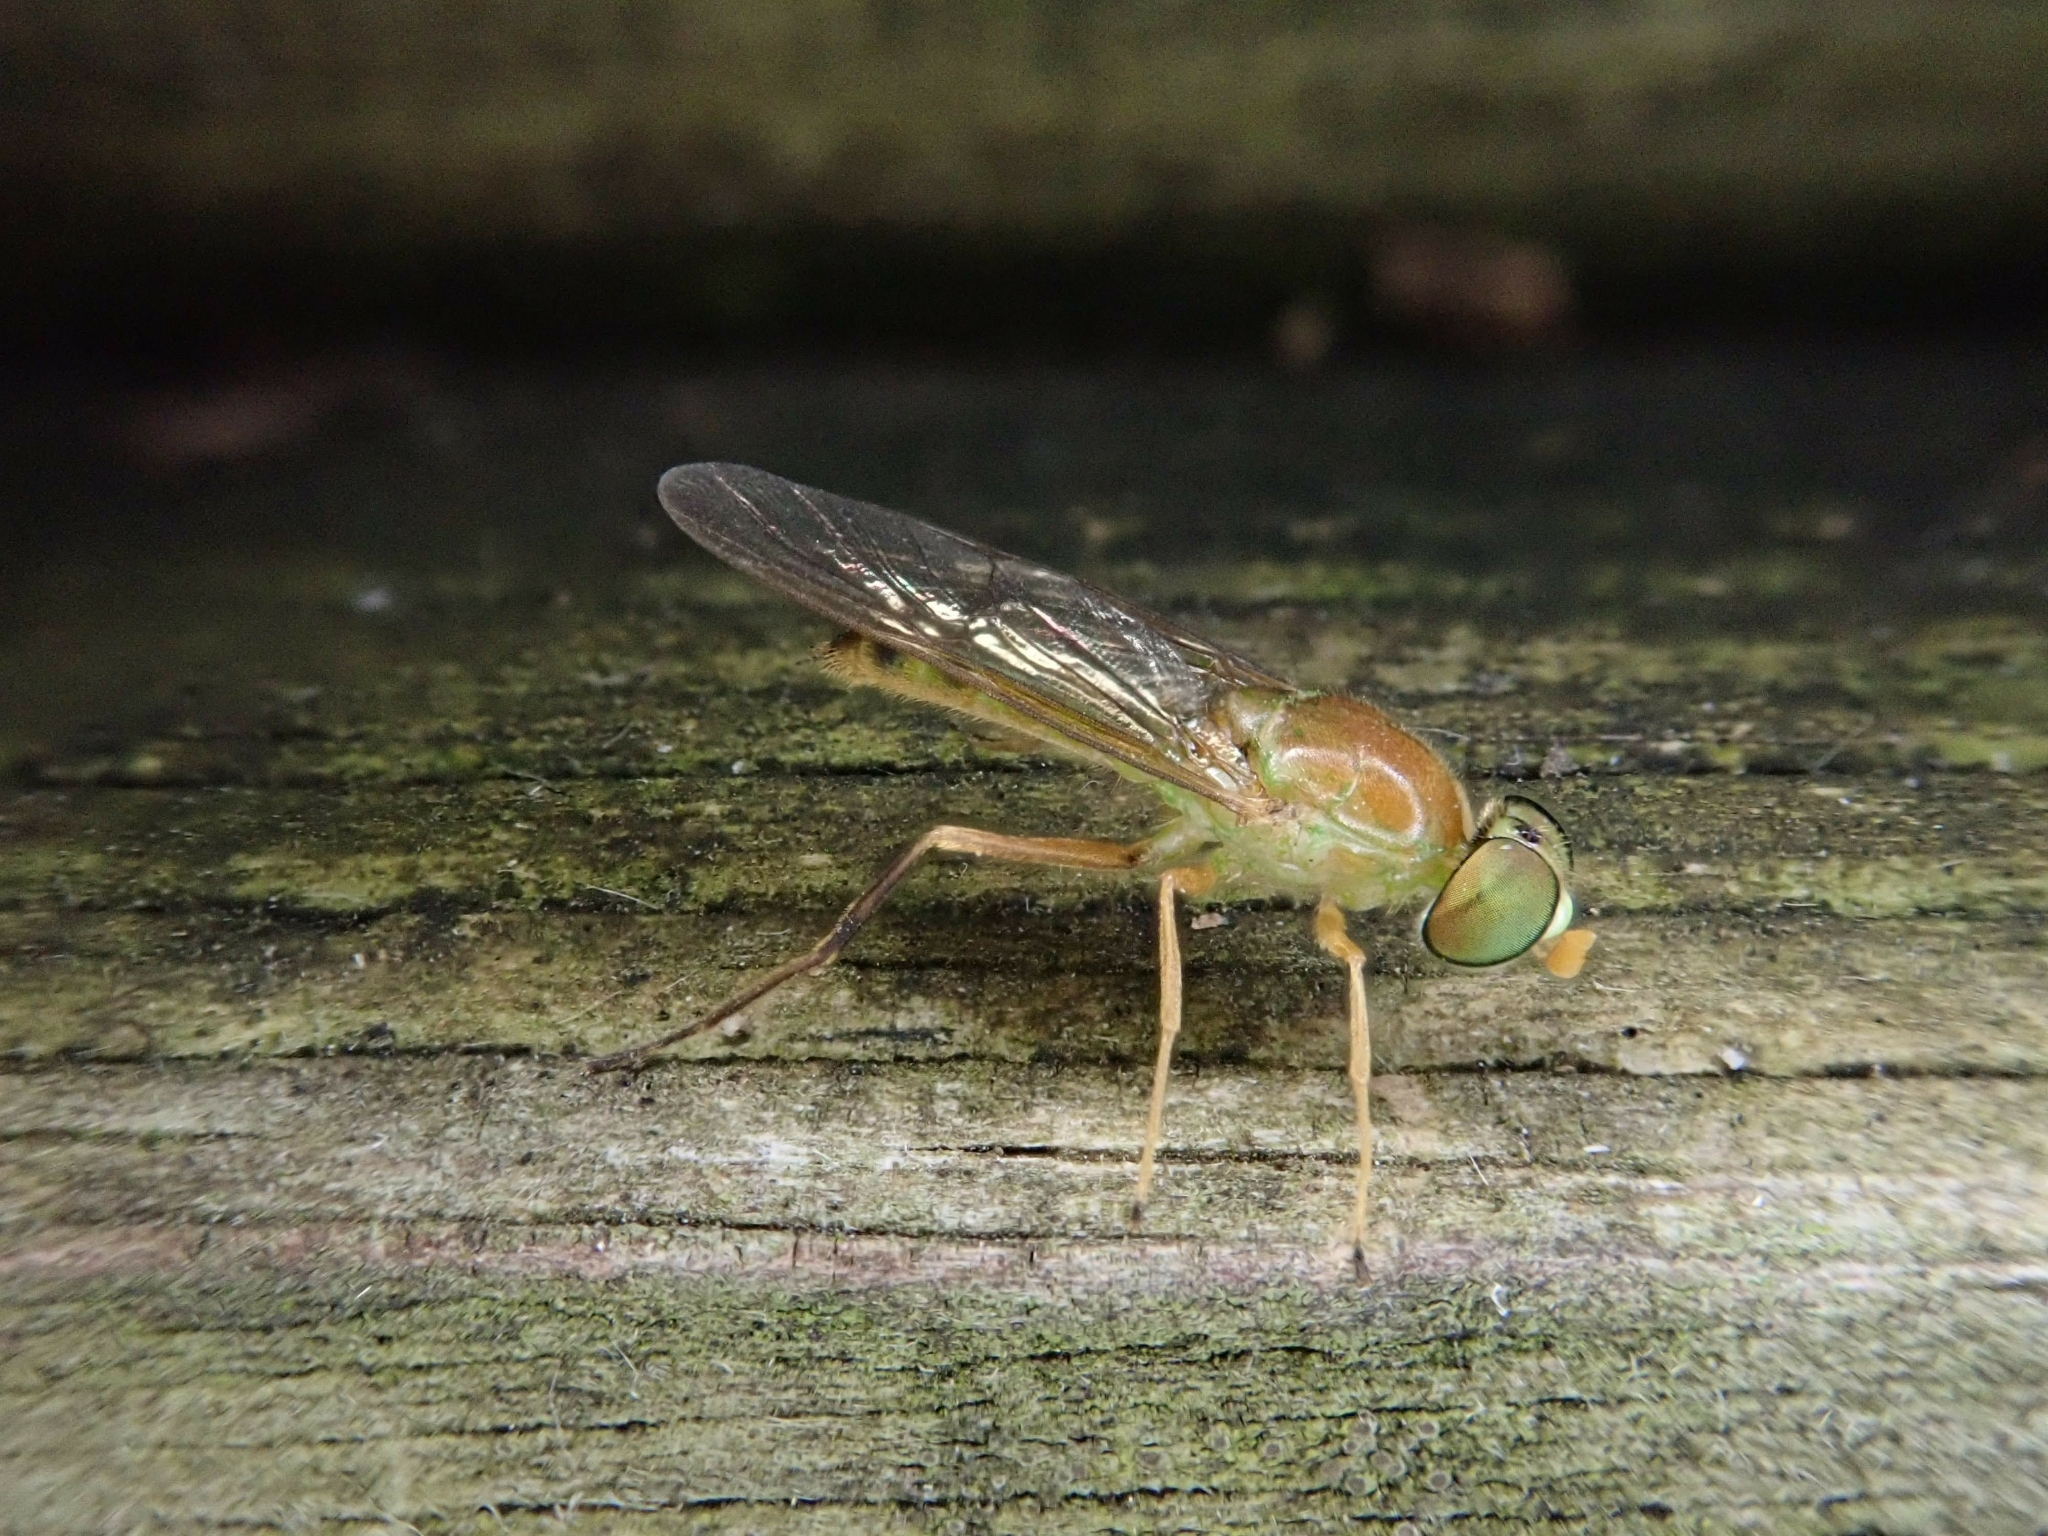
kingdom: Animalia
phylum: Arthropoda
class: Insecta
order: Diptera
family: Stratiomyidae
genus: Ptecticus
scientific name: Ptecticus trivittatus
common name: Compost fly
